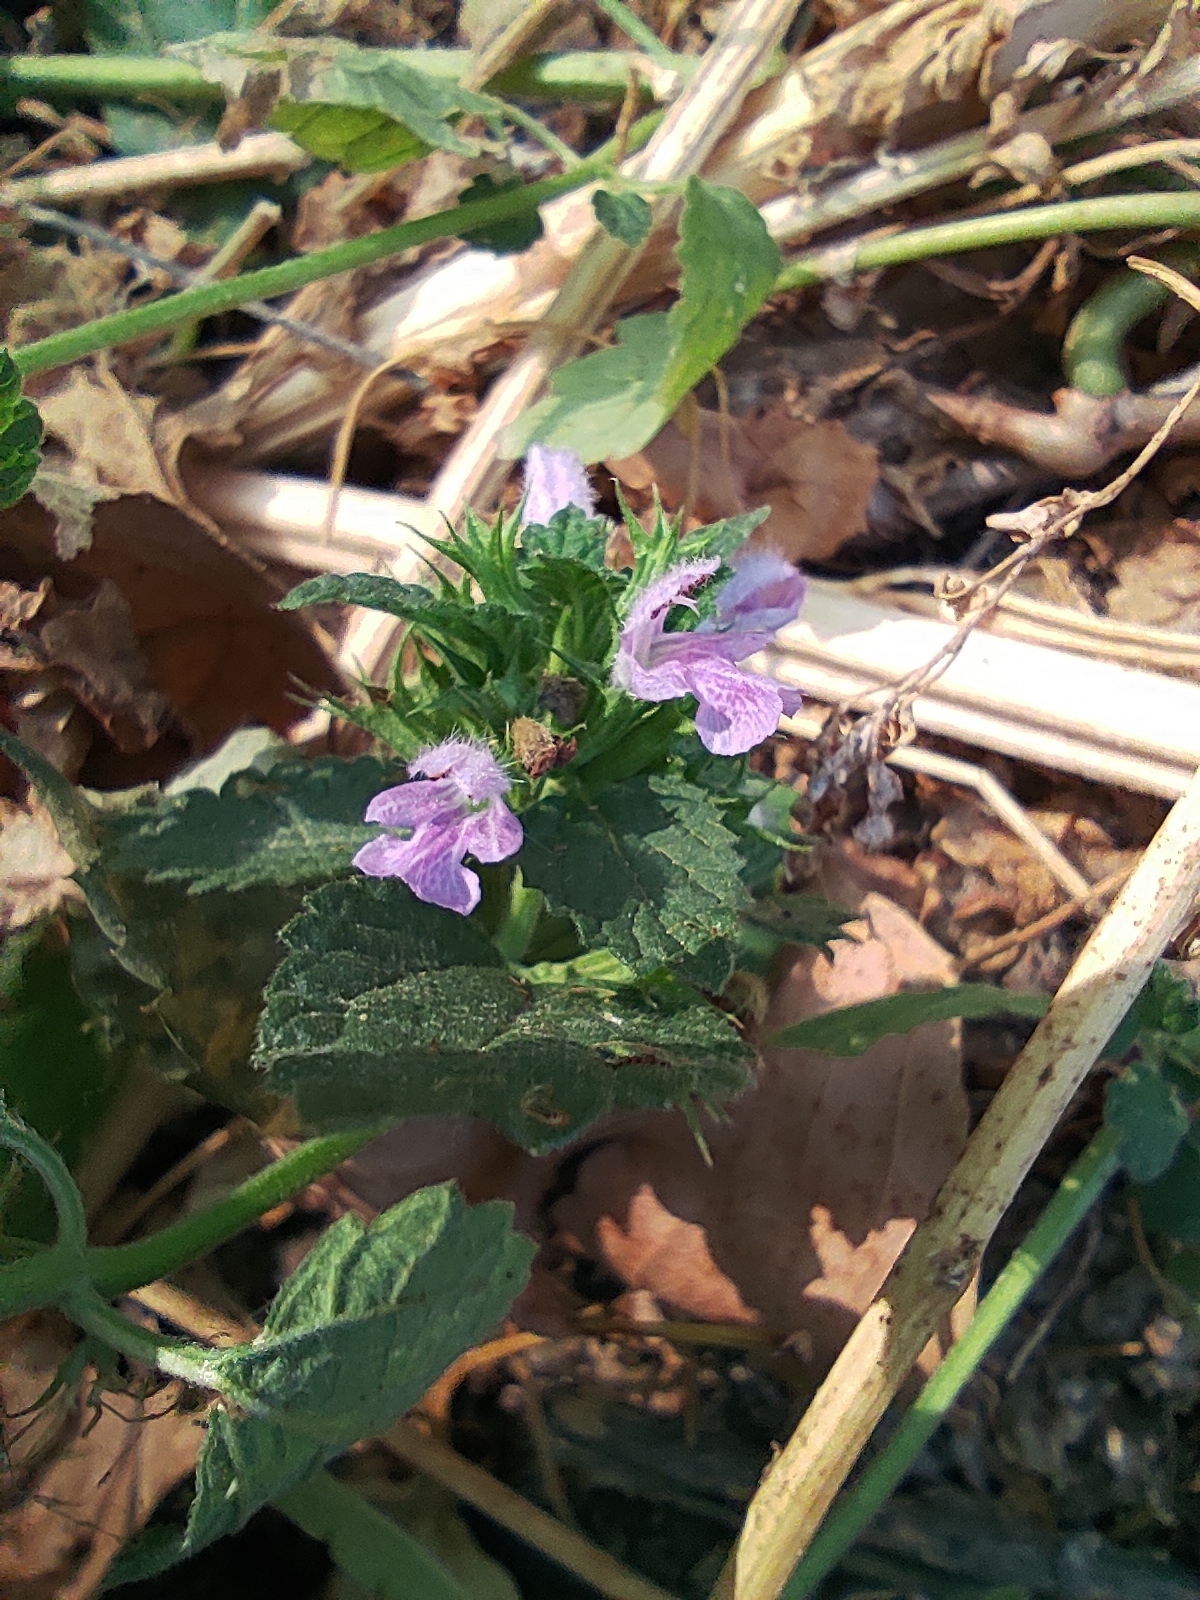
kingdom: Plantae
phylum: Tracheophyta
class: Magnoliopsida
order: Lamiales
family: Lamiaceae
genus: Ballota
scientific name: Ballota nigra
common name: Black horehound
